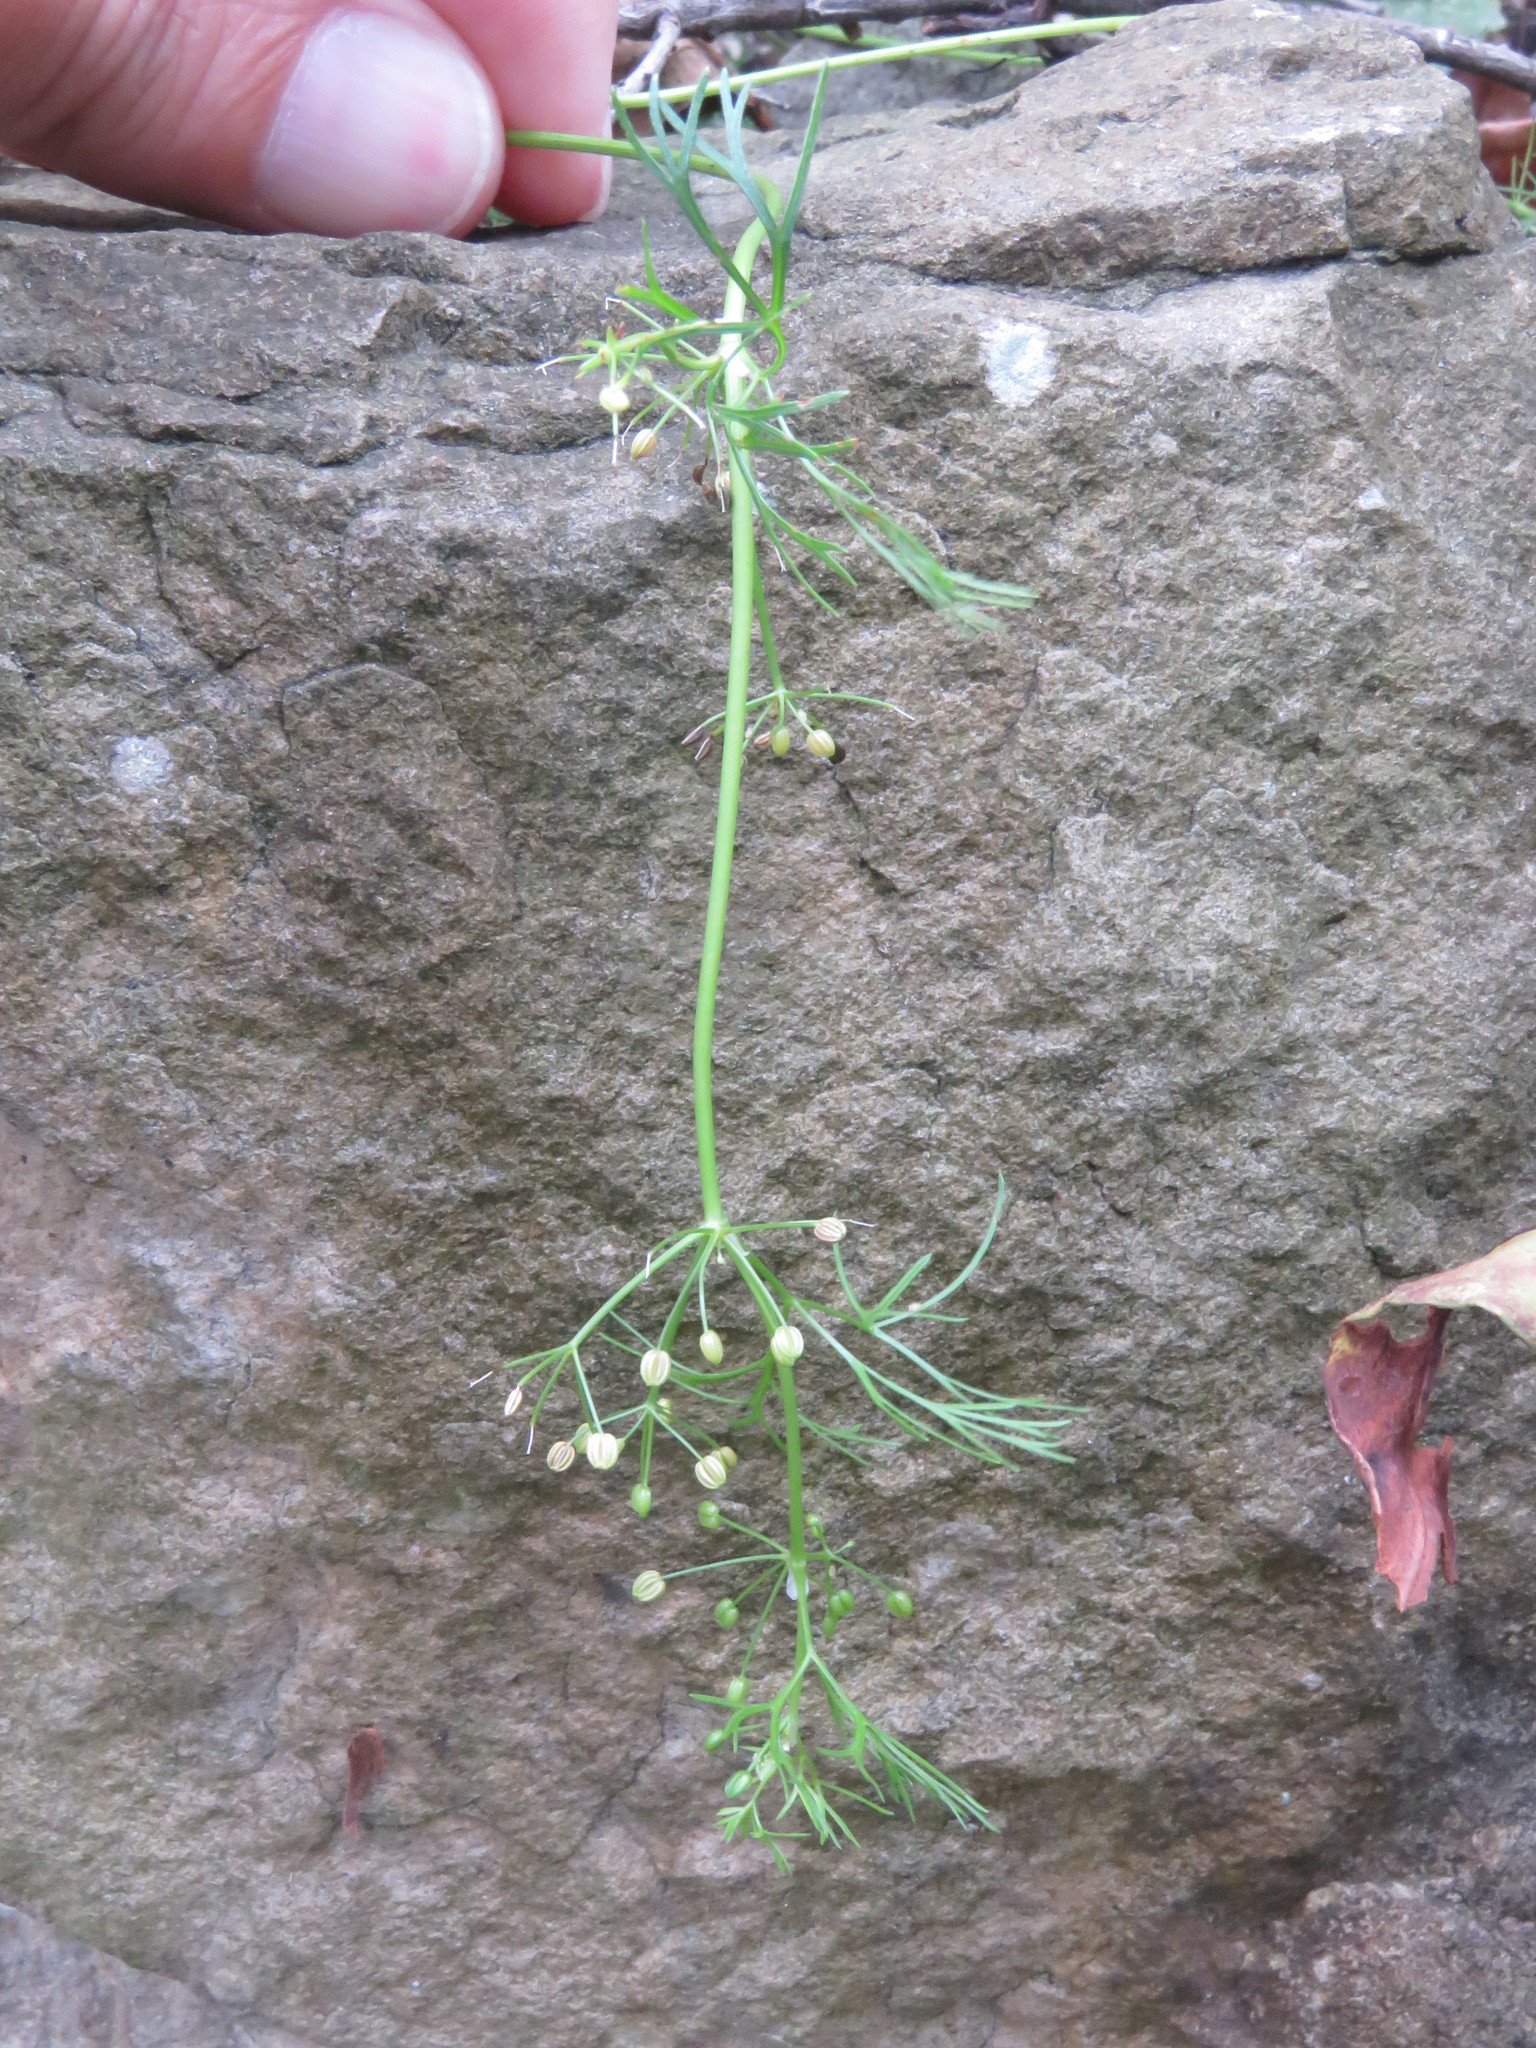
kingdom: Plantae
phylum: Tracheophyta
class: Magnoliopsida
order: Apiales
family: Apiaceae
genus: Cyclospermum
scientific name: Cyclospermum leptophyllum
